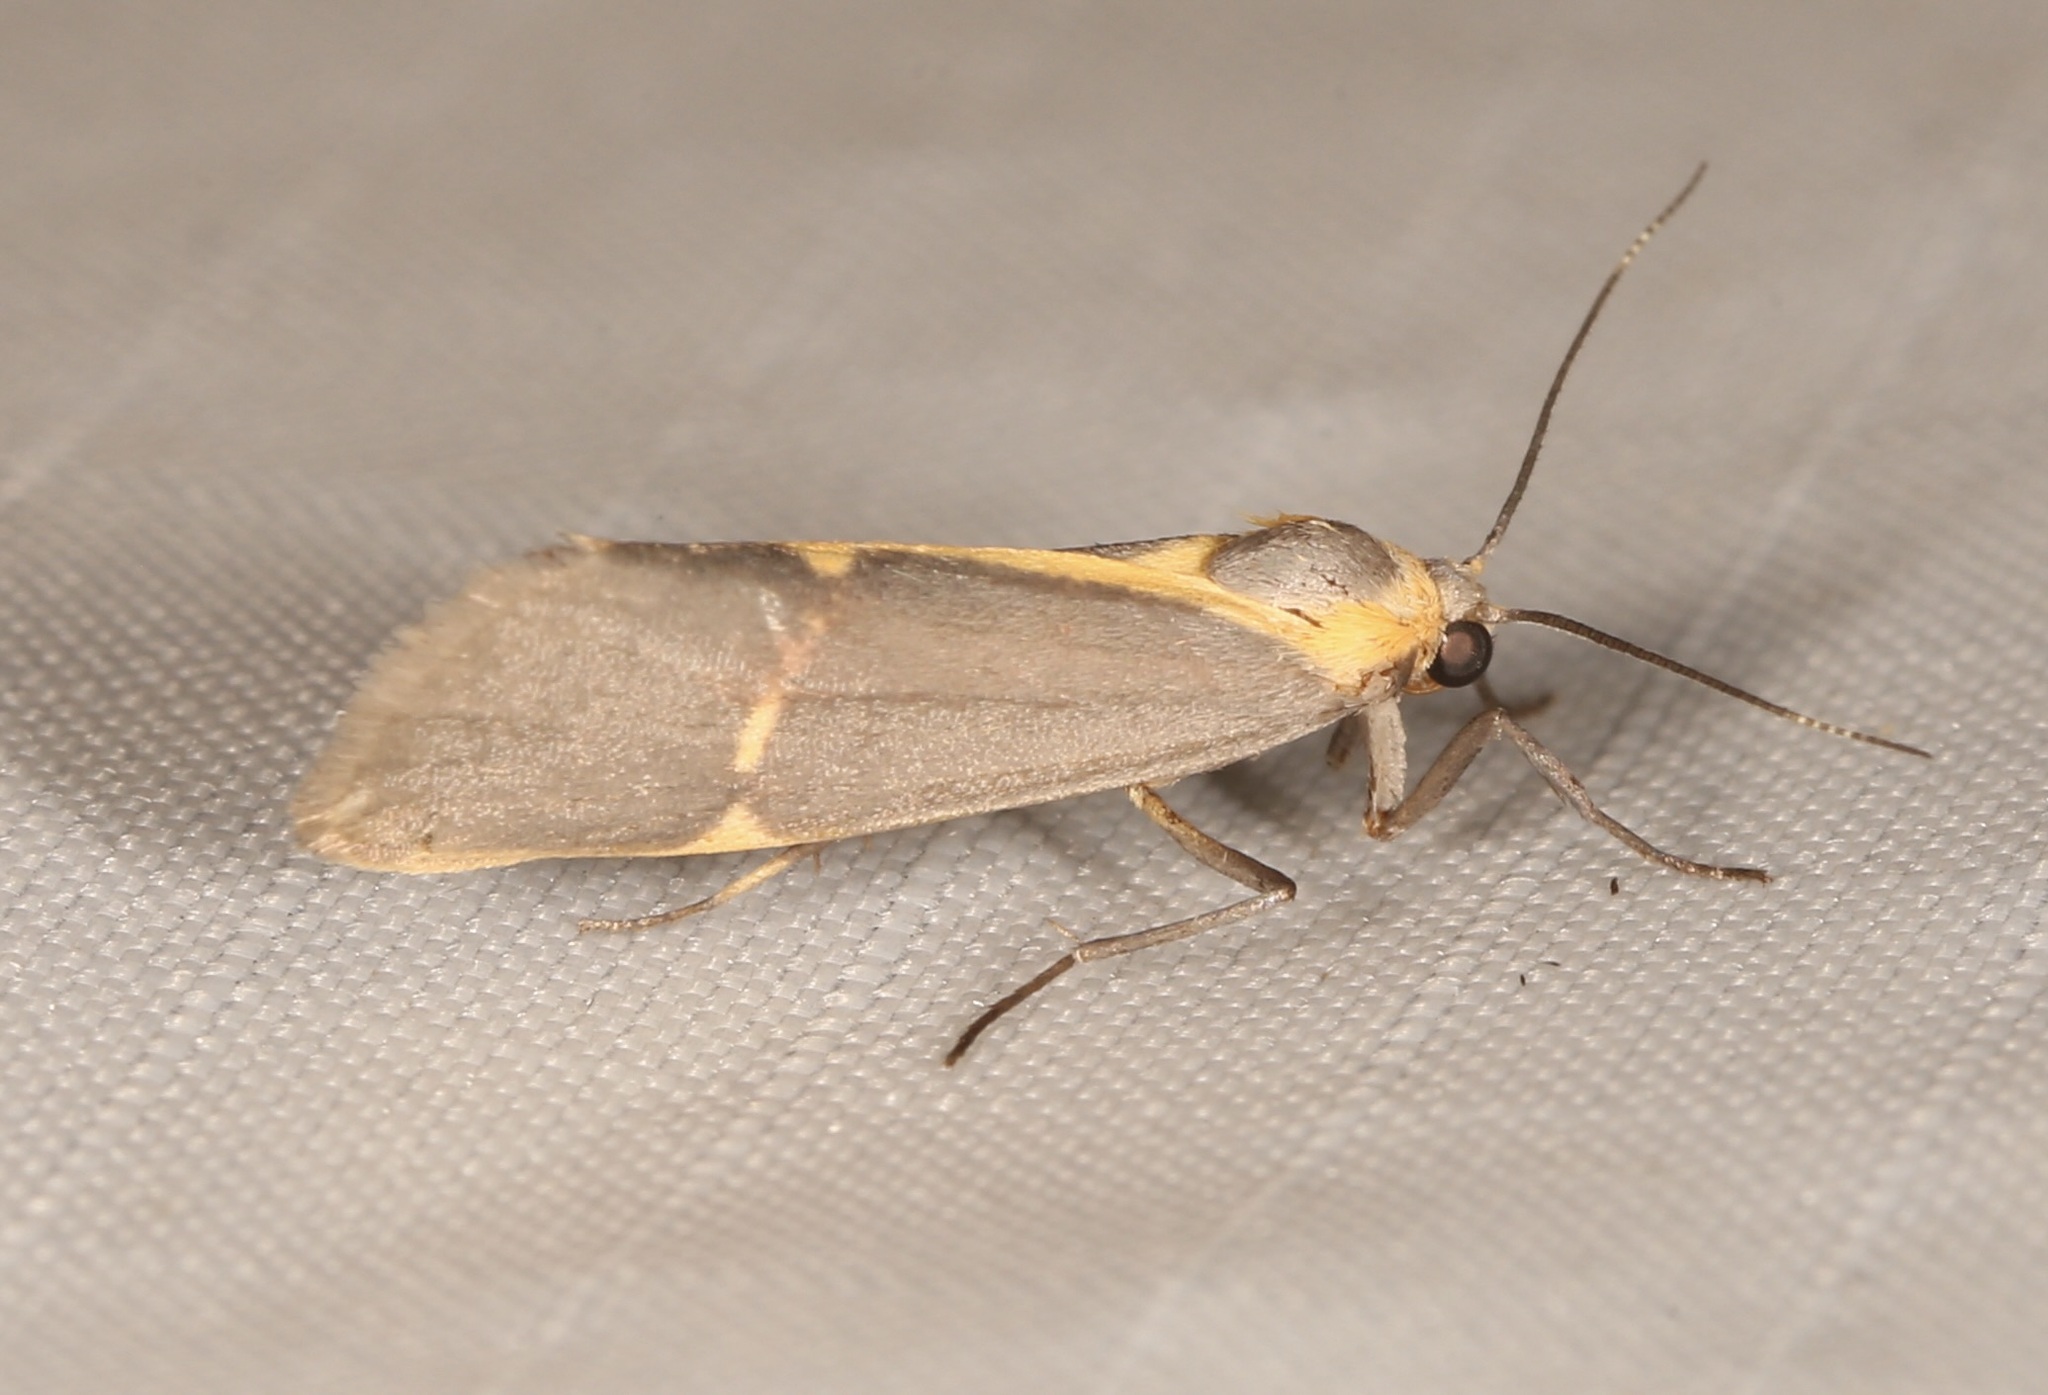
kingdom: Animalia
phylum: Arthropoda
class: Insecta
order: Lepidoptera
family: Erebidae
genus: Cisthene
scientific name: Cisthene barnesii
